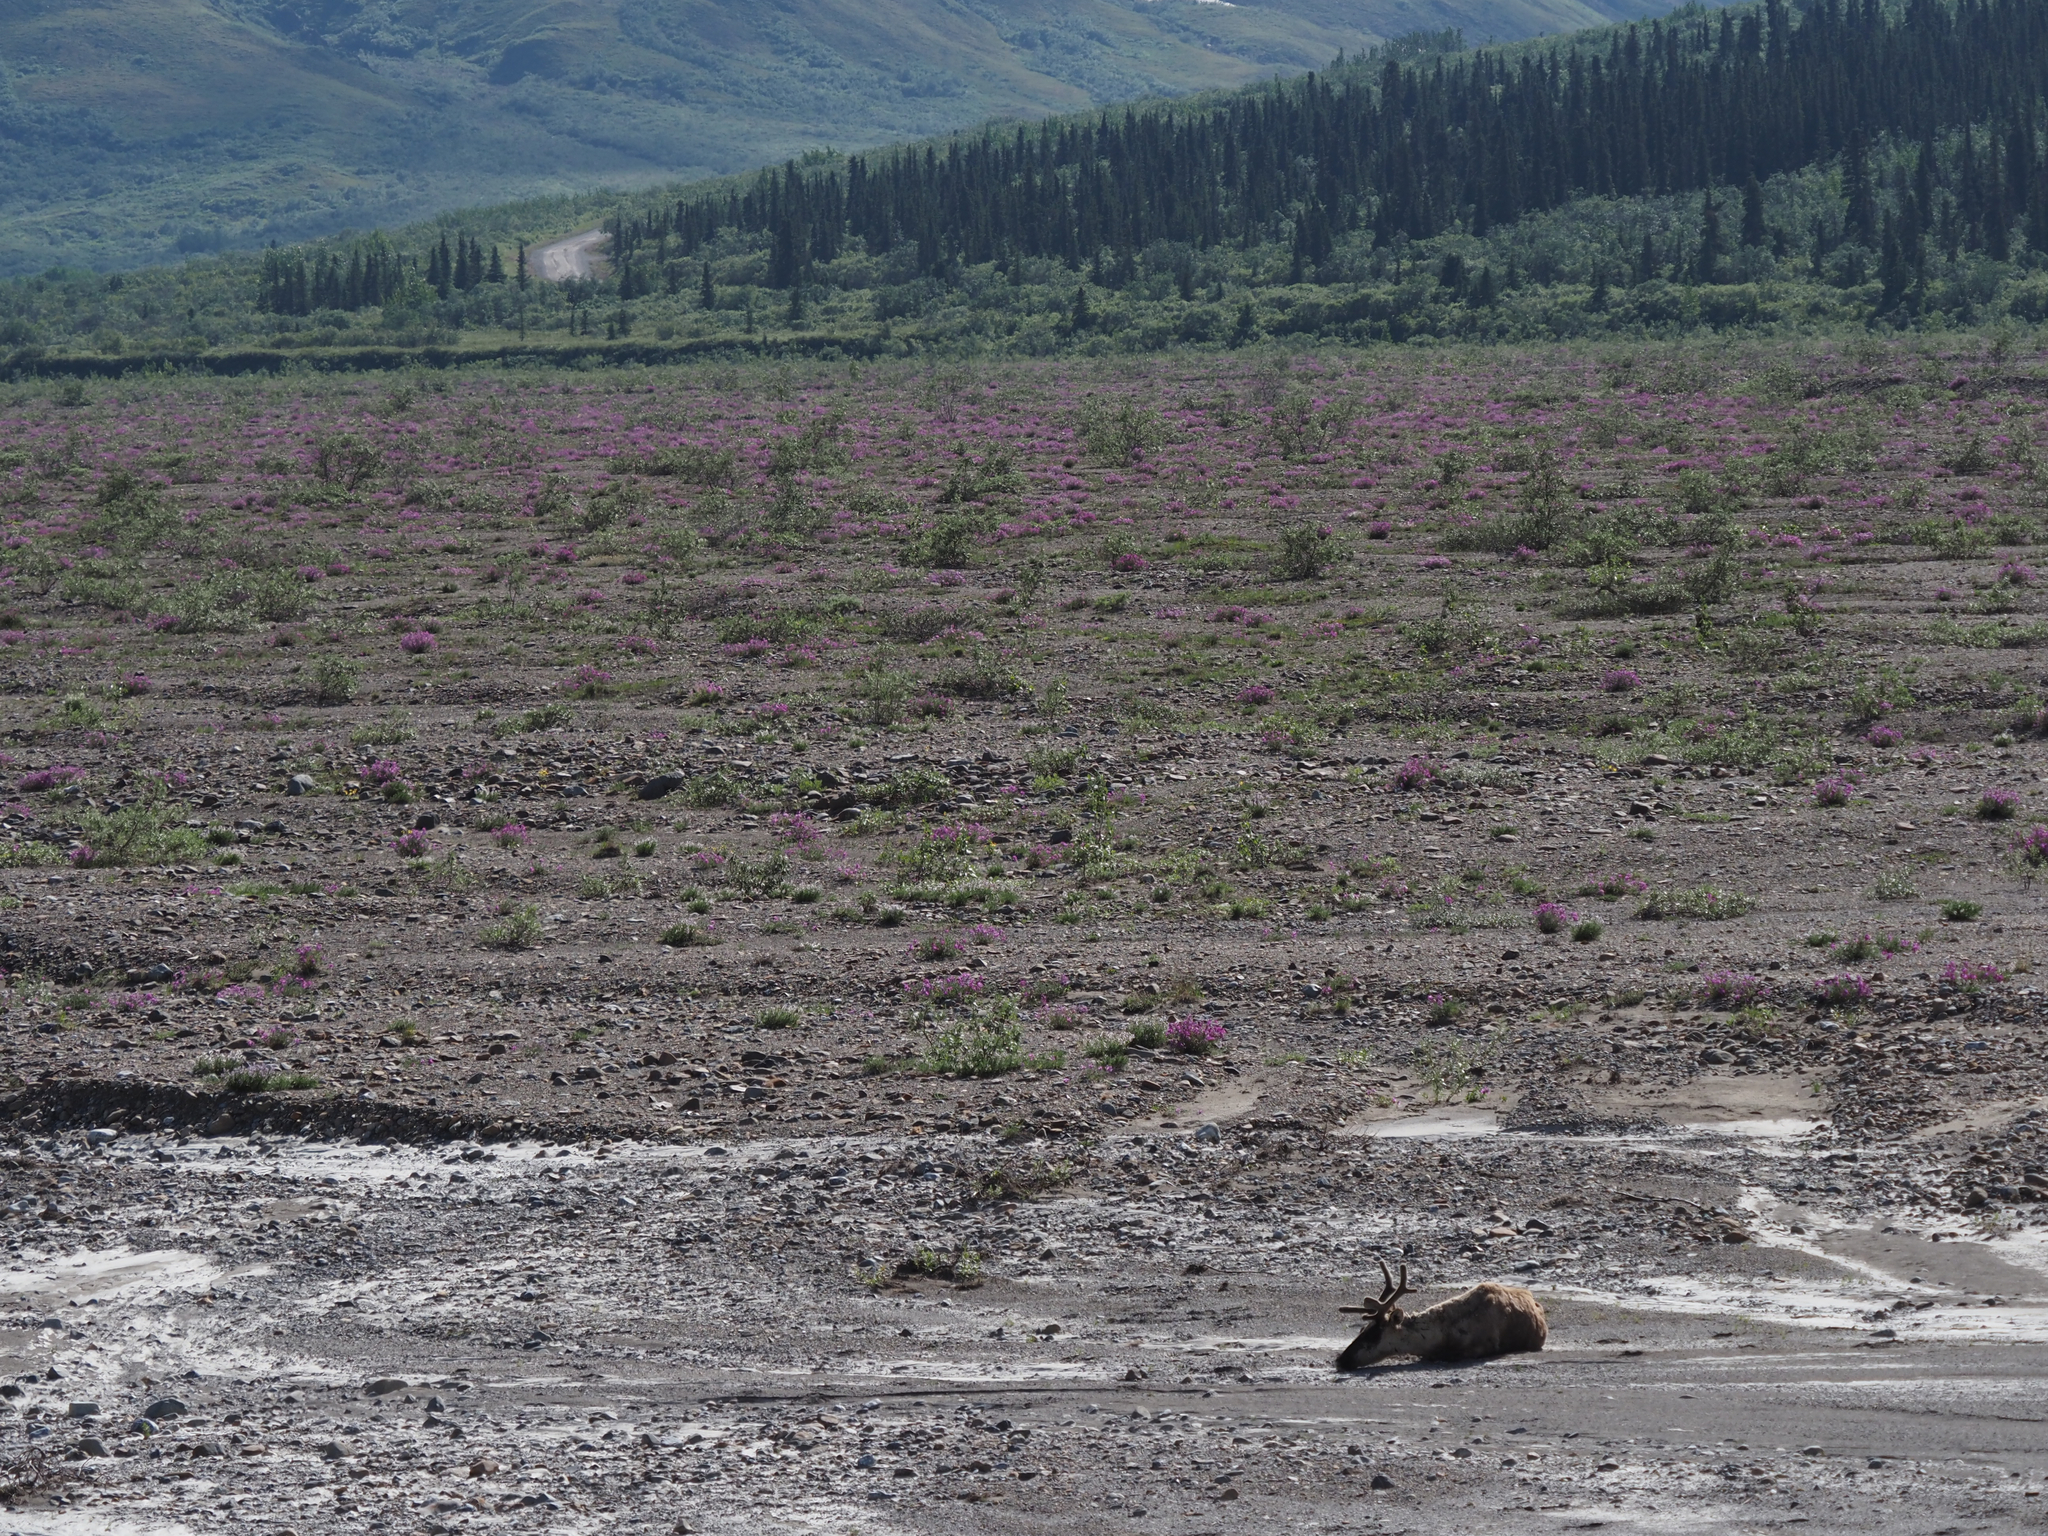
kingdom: Animalia
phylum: Chordata
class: Mammalia
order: Artiodactyla
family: Cervidae
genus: Rangifer
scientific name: Rangifer tarandus
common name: Reindeer
